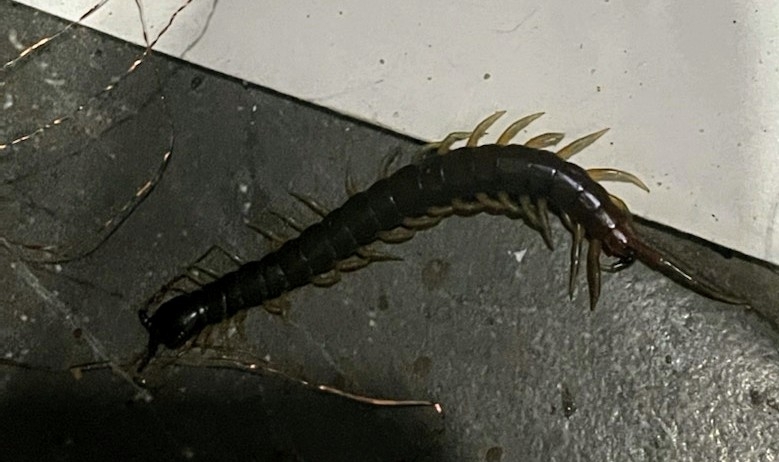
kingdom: Animalia
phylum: Arthropoda
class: Chilopoda
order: Scolopendromorpha
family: Scolopendridae
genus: Rhysida
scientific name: Rhysida longipes
